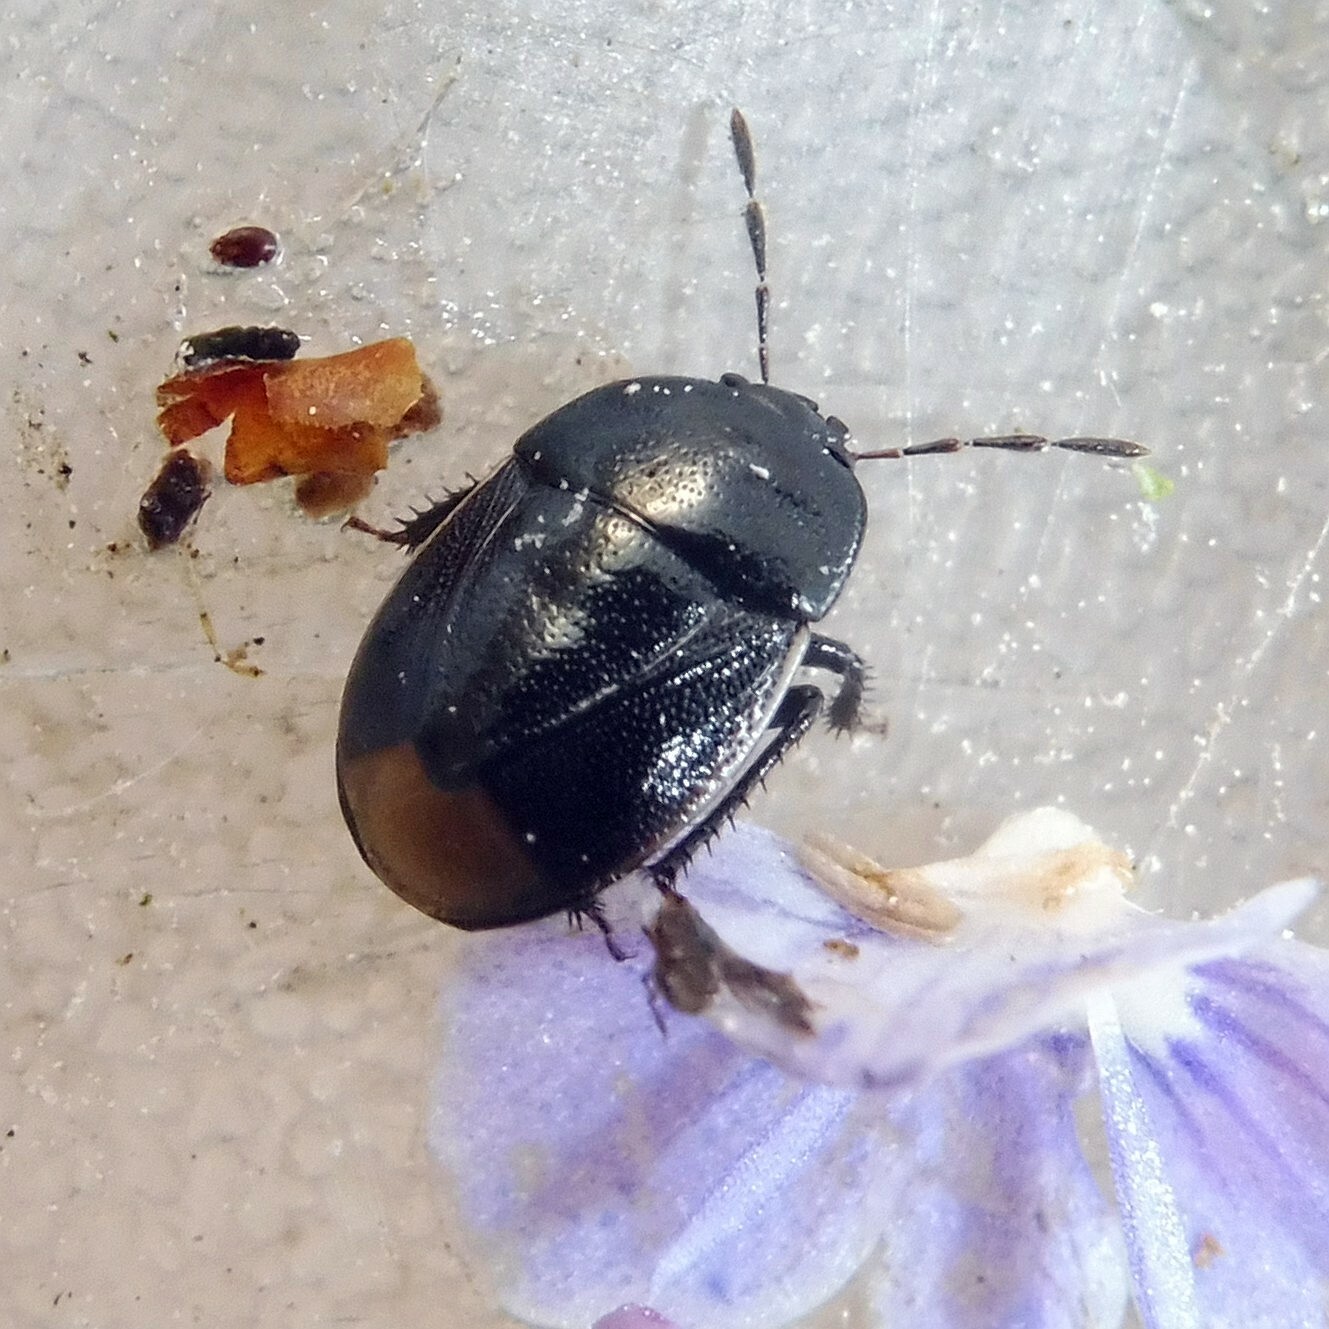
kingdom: Animalia
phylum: Arthropoda
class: Insecta
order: Hemiptera
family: Cydnidae
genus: Legnotus
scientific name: Legnotus limbosus
